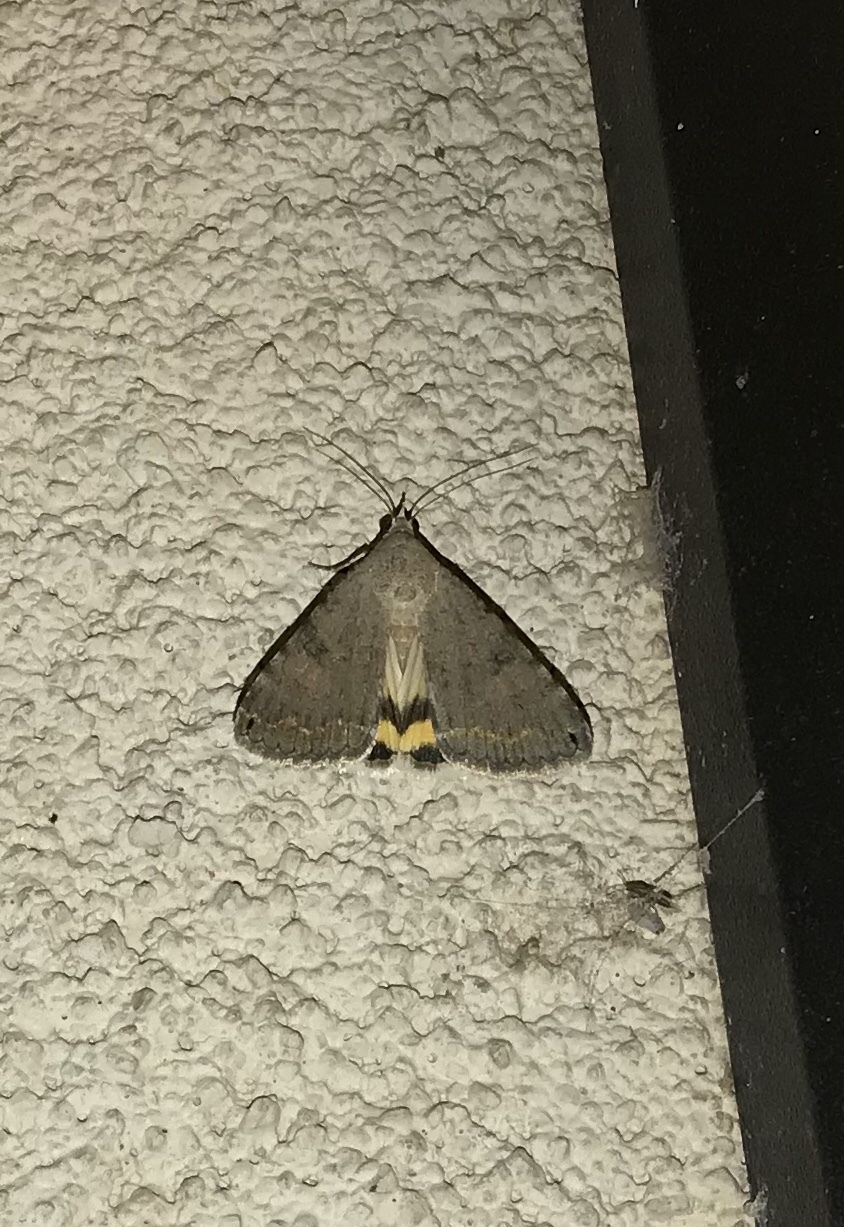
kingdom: Animalia
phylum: Arthropoda
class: Insecta
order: Lepidoptera
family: Erebidae
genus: Bulia
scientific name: Bulia deducta
